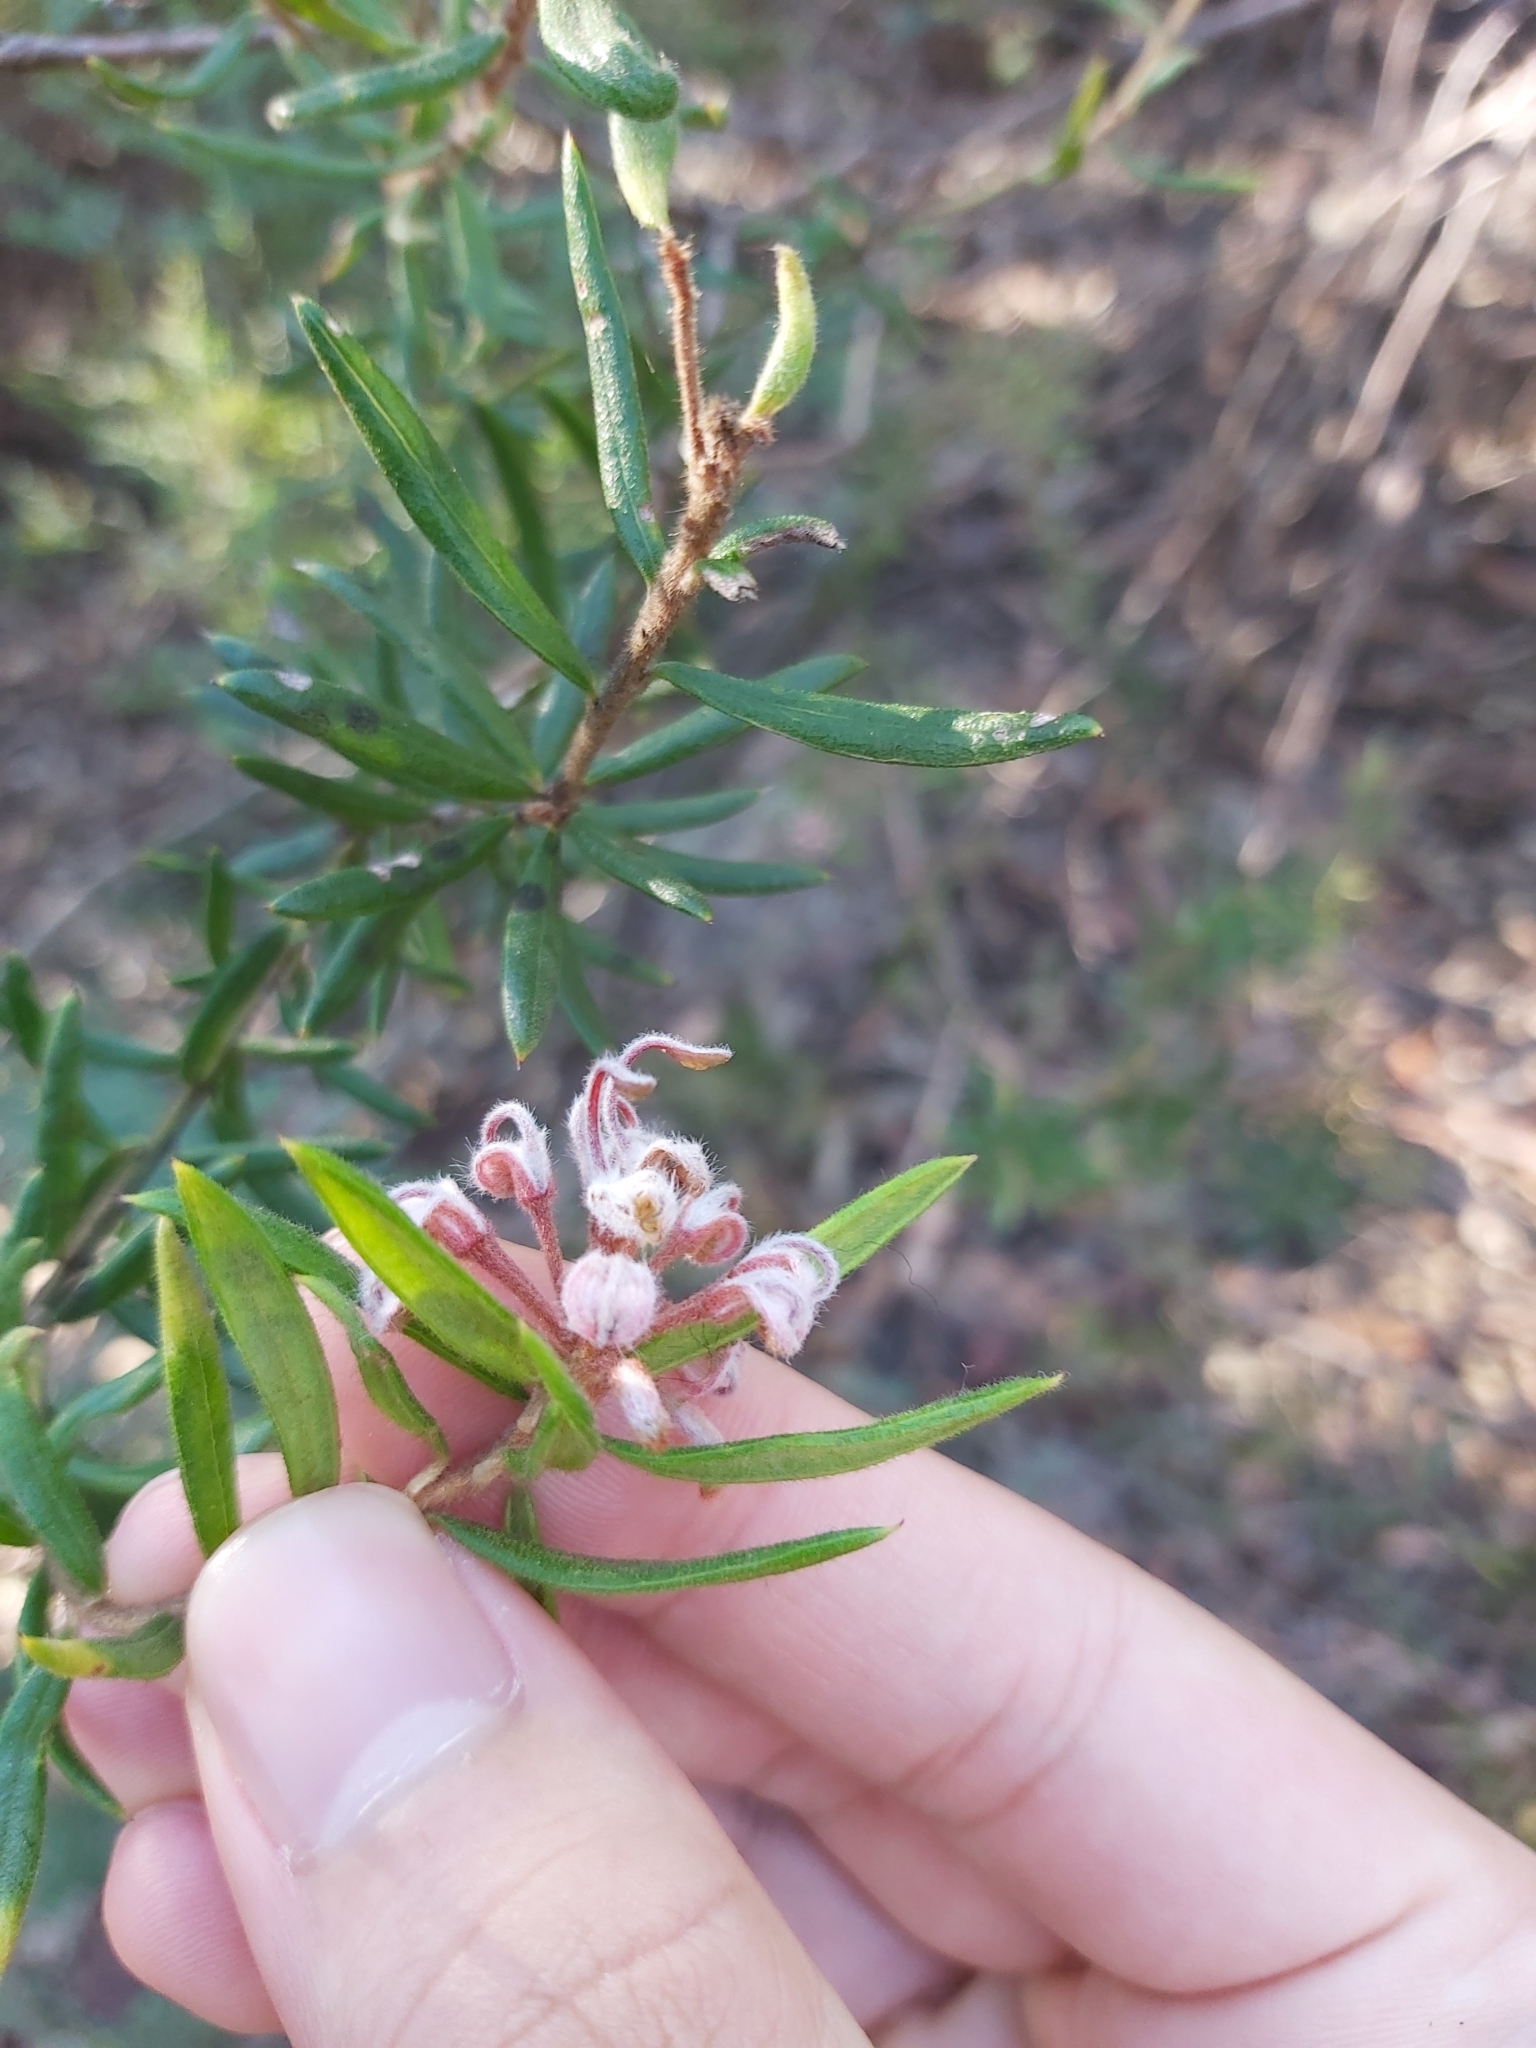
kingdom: Plantae
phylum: Tracheophyta
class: Magnoliopsida
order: Proteales
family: Proteaceae
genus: Grevillea
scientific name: Grevillea phylicoides
